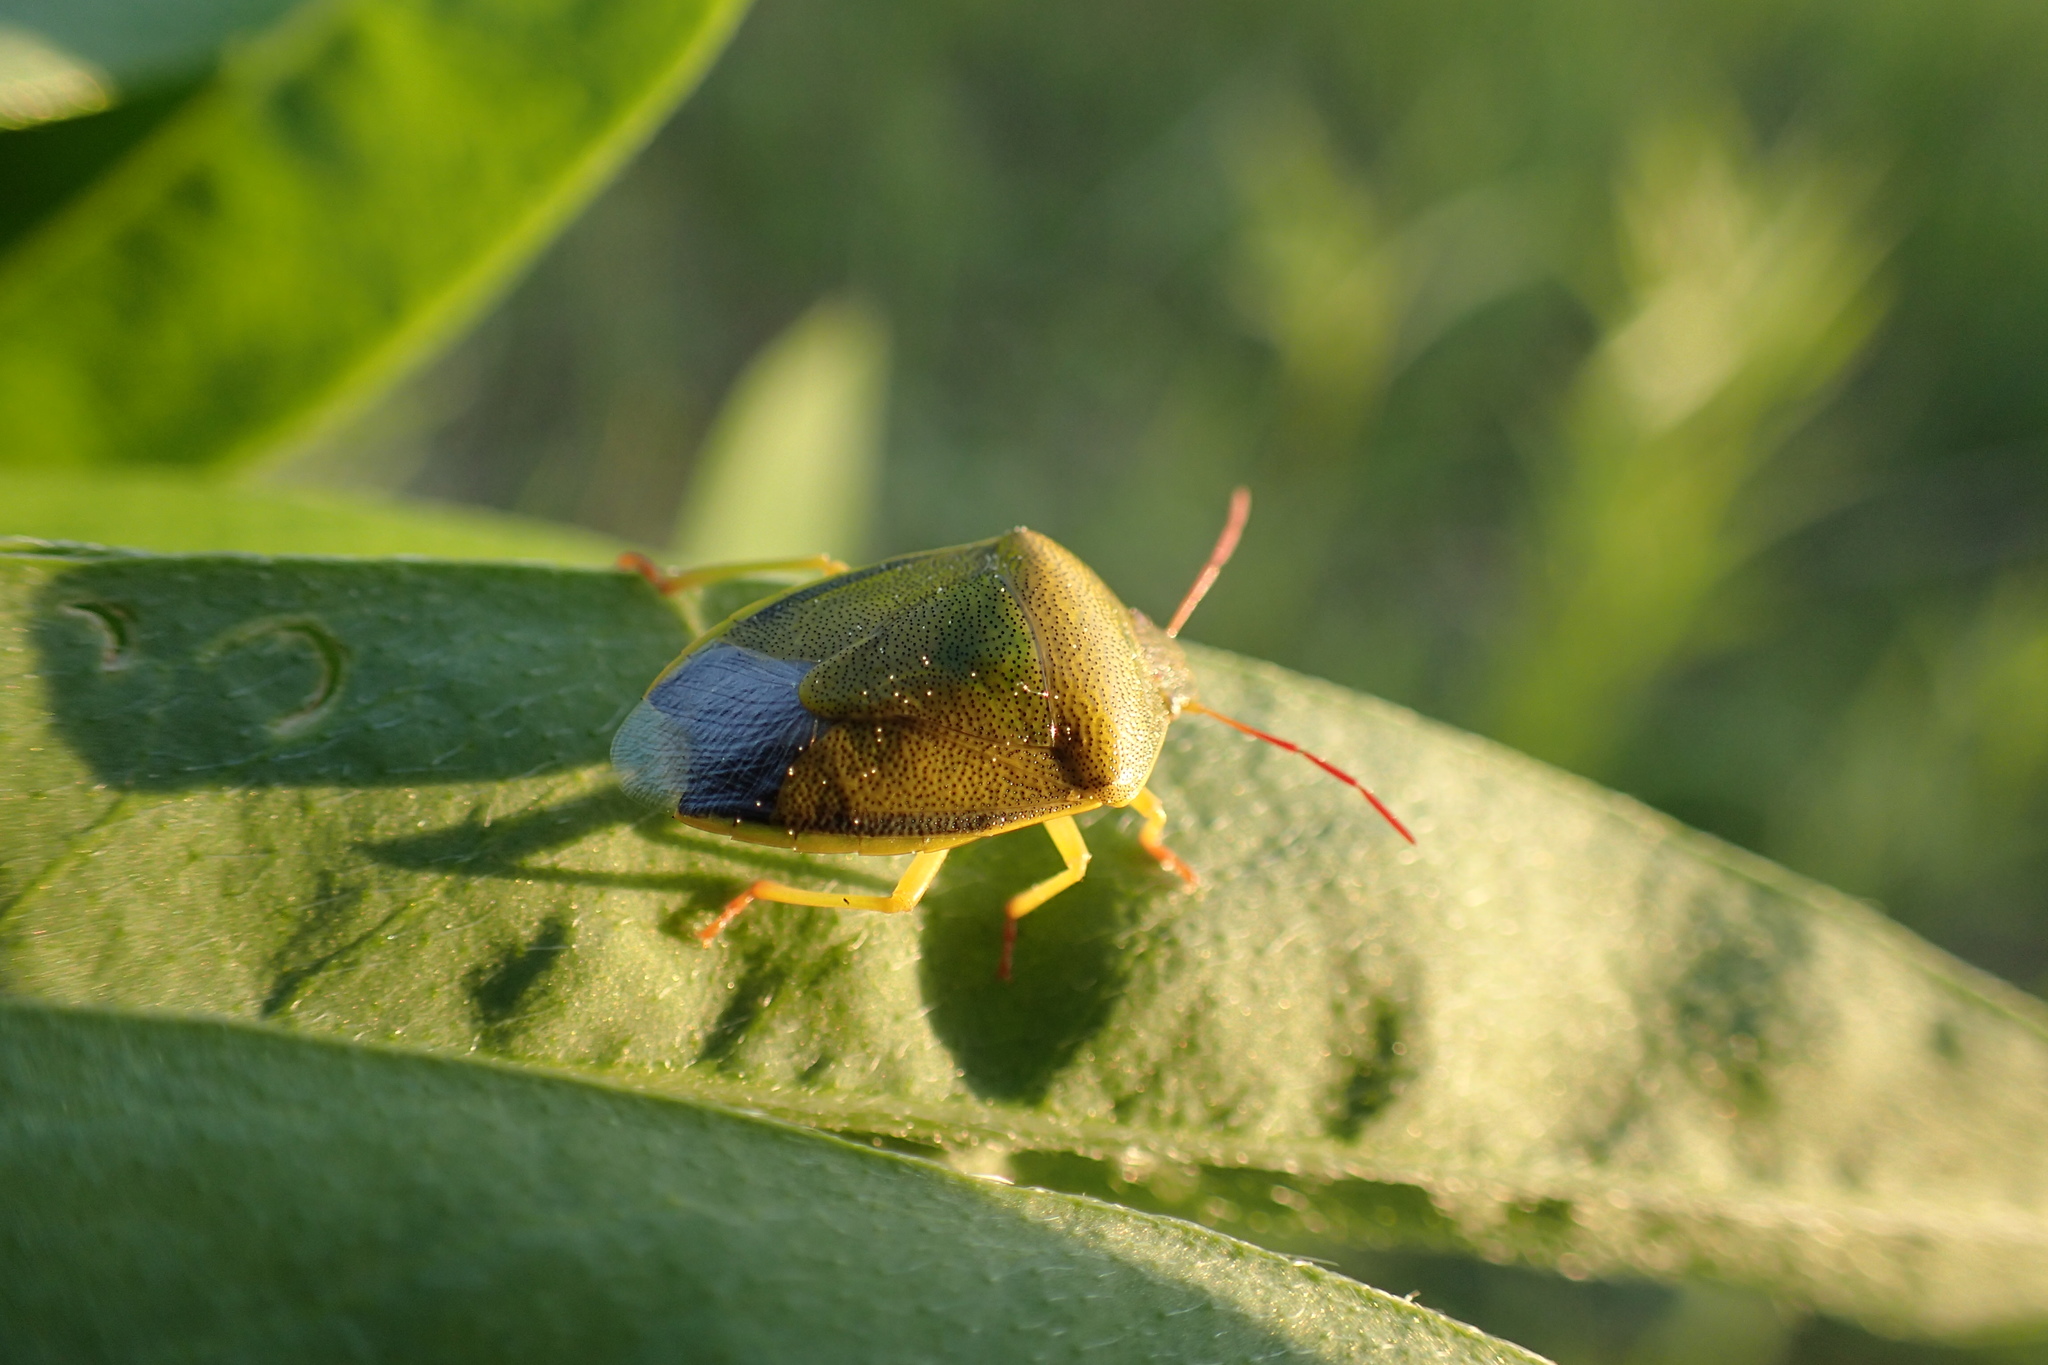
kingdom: Animalia
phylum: Arthropoda
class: Insecta
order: Hemiptera
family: Pentatomidae
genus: Piezodorus
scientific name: Piezodorus lituratus
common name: Stink bug
